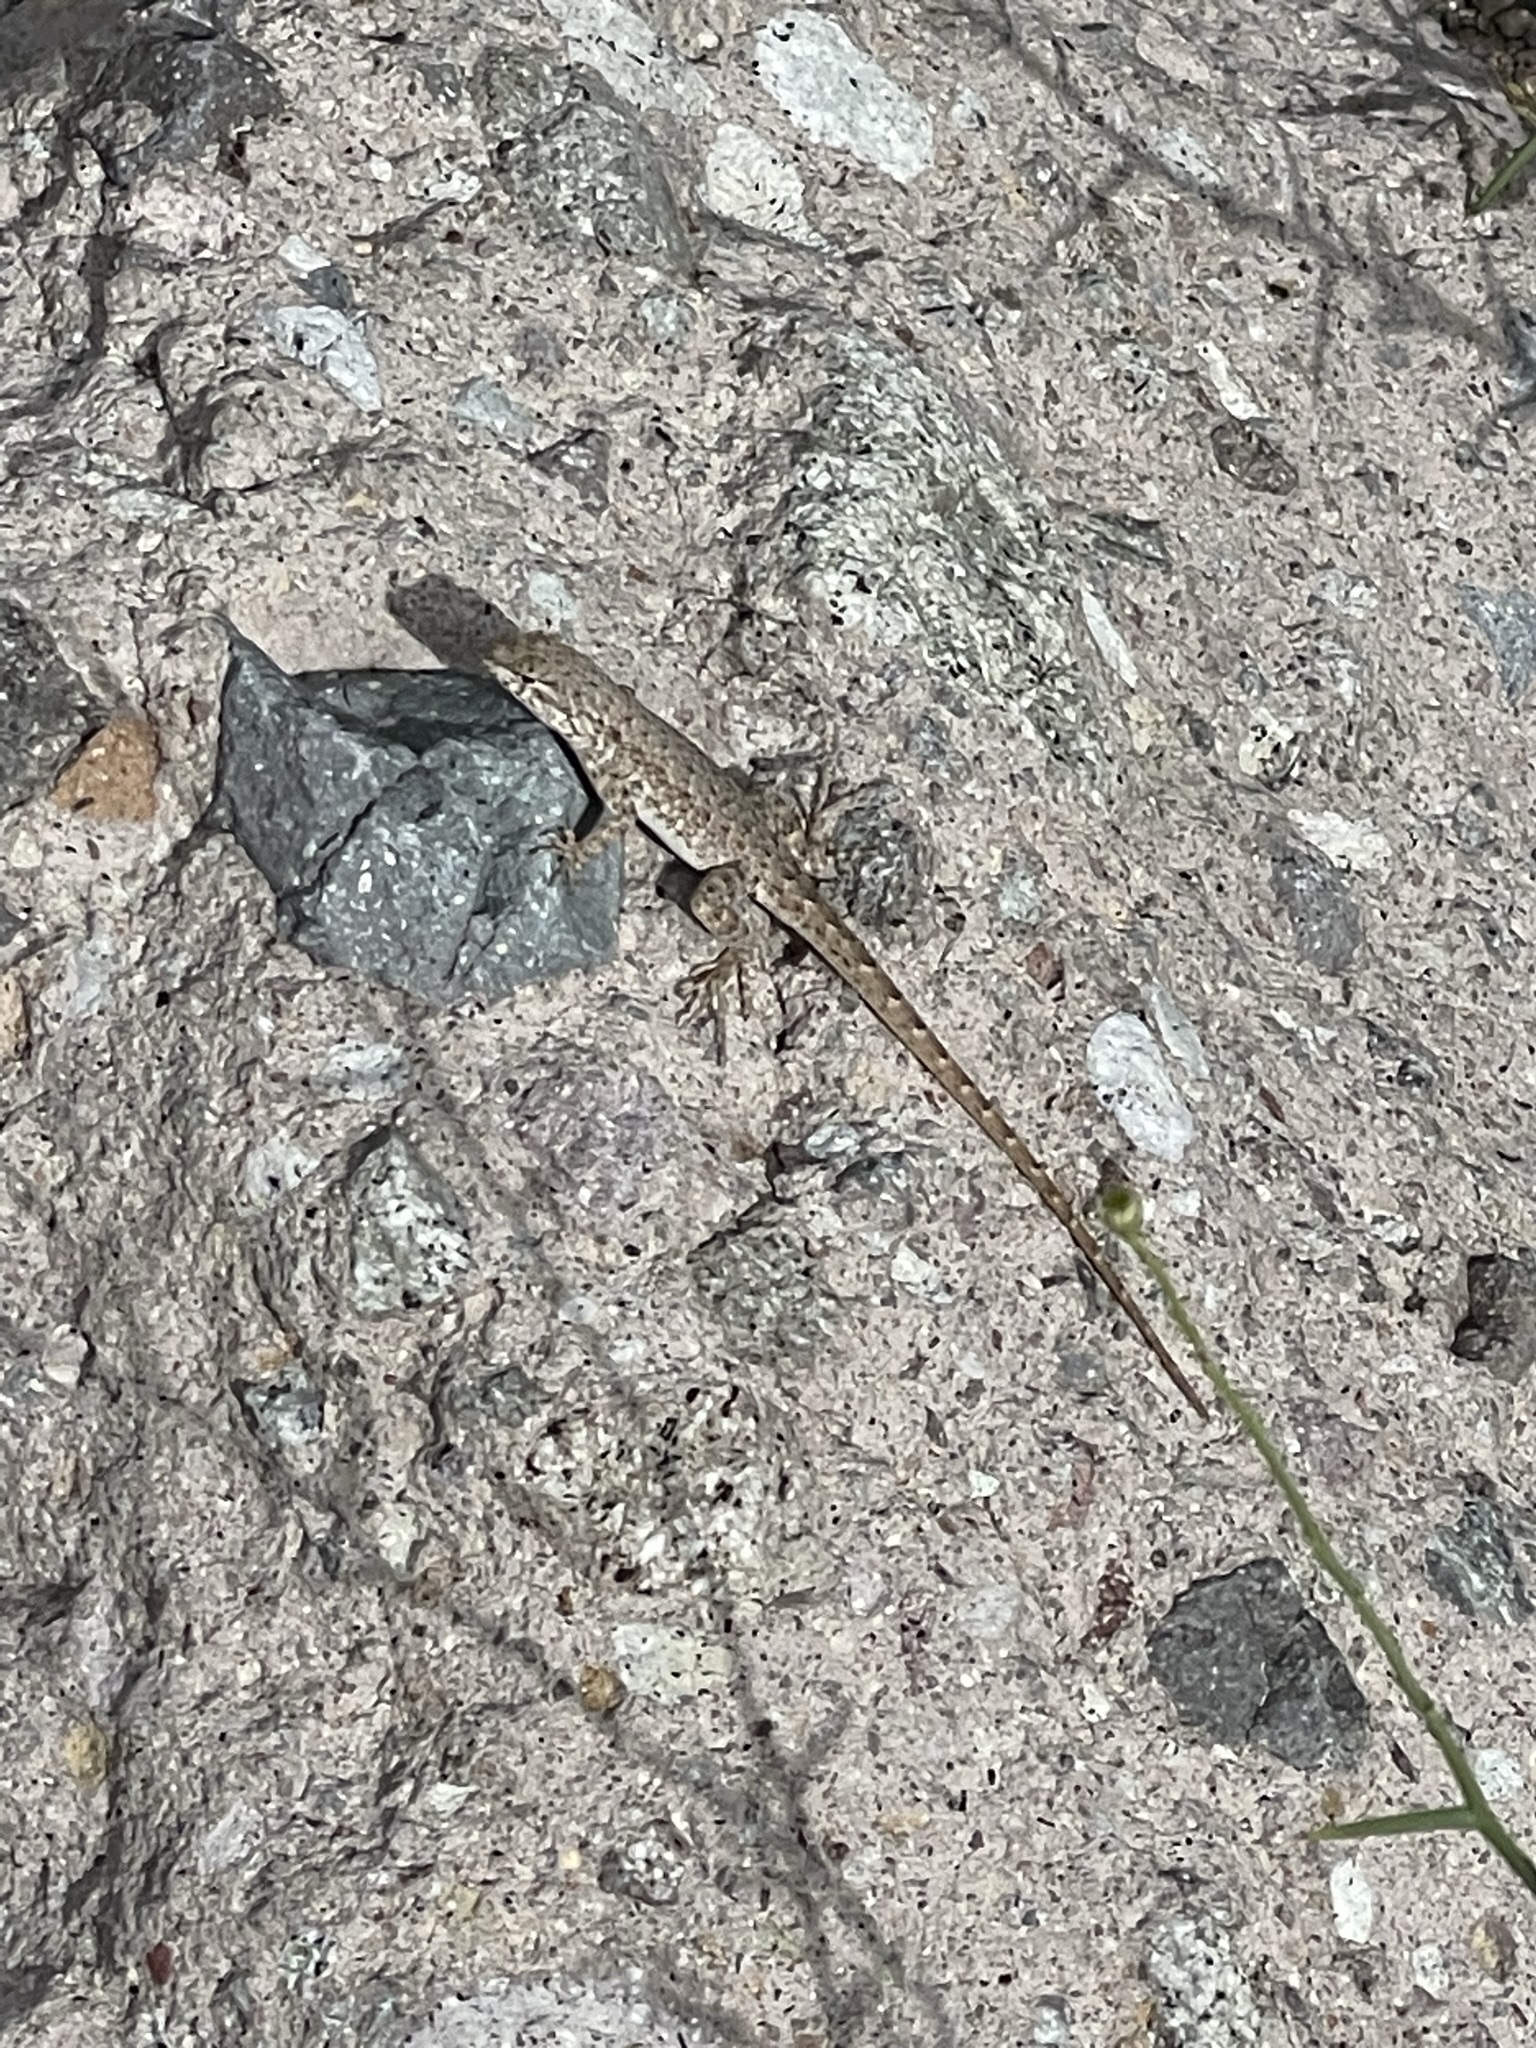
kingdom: Animalia
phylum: Chordata
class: Squamata
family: Phrynosomatidae
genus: Uta
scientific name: Uta stansburiana
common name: Side-blotched lizard
